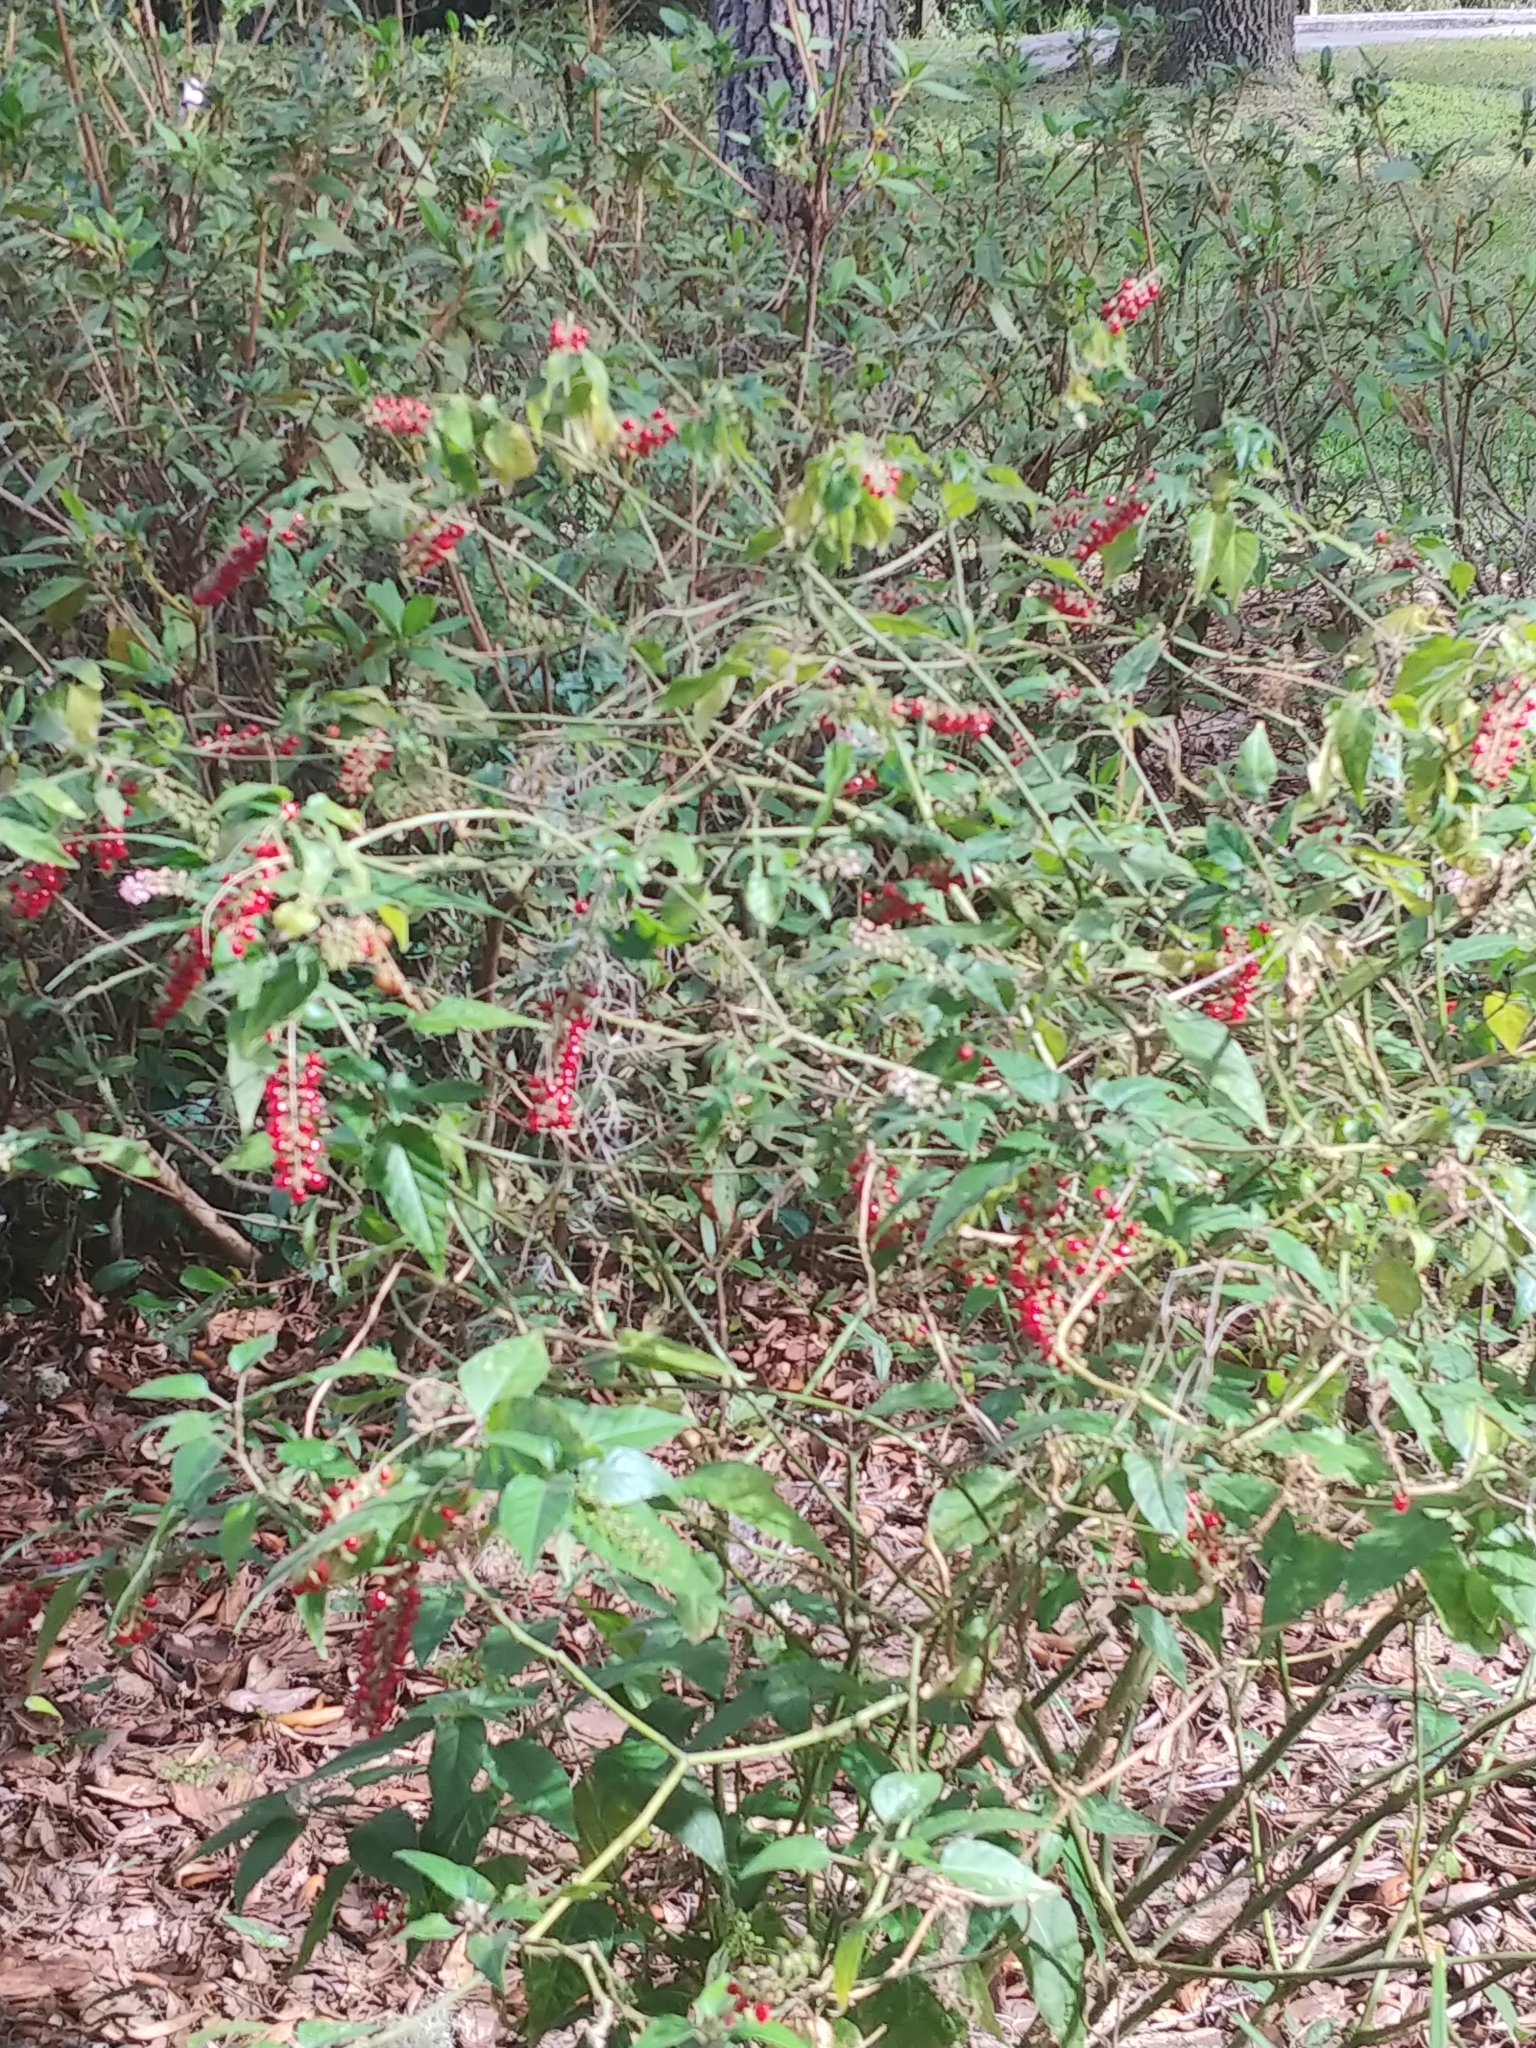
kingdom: Plantae
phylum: Tracheophyta
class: Magnoliopsida
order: Caryophyllales
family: Phytolaccaceae
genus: Rivina
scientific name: Rivina humilis
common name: Rougeplant
